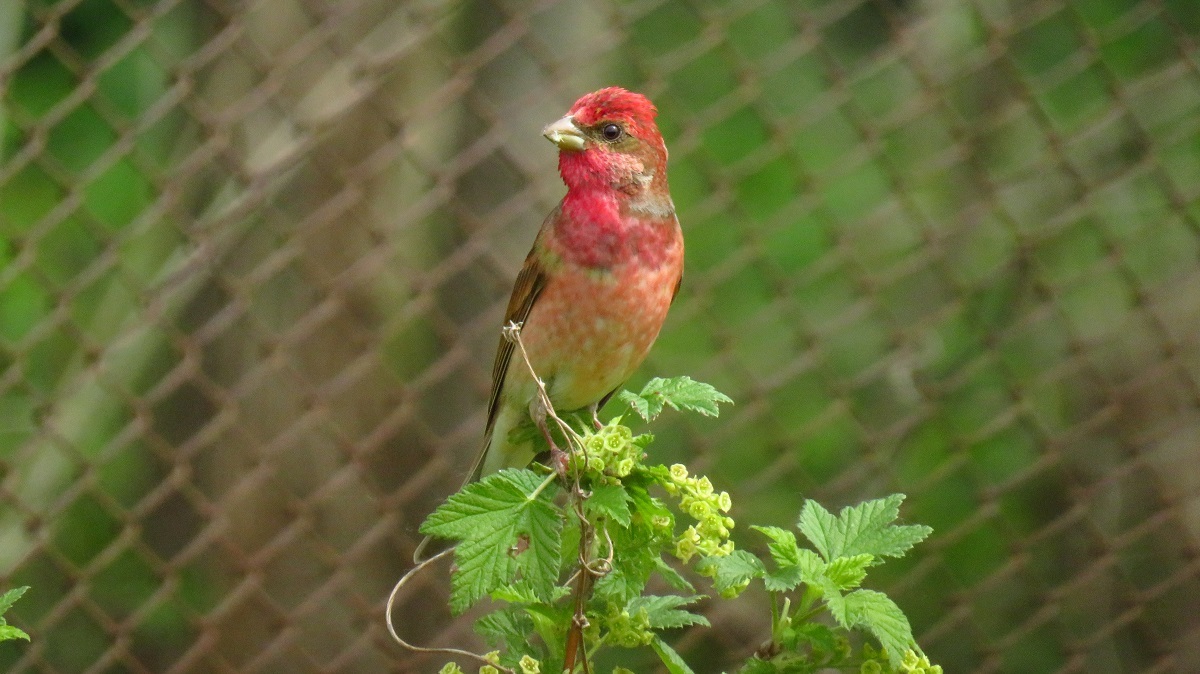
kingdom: Animalia
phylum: Chordata
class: Aves
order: Passeriformes
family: Fringillidae
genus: Carpodacus
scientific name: Carpodacus erythrinus
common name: Common rosefinch
